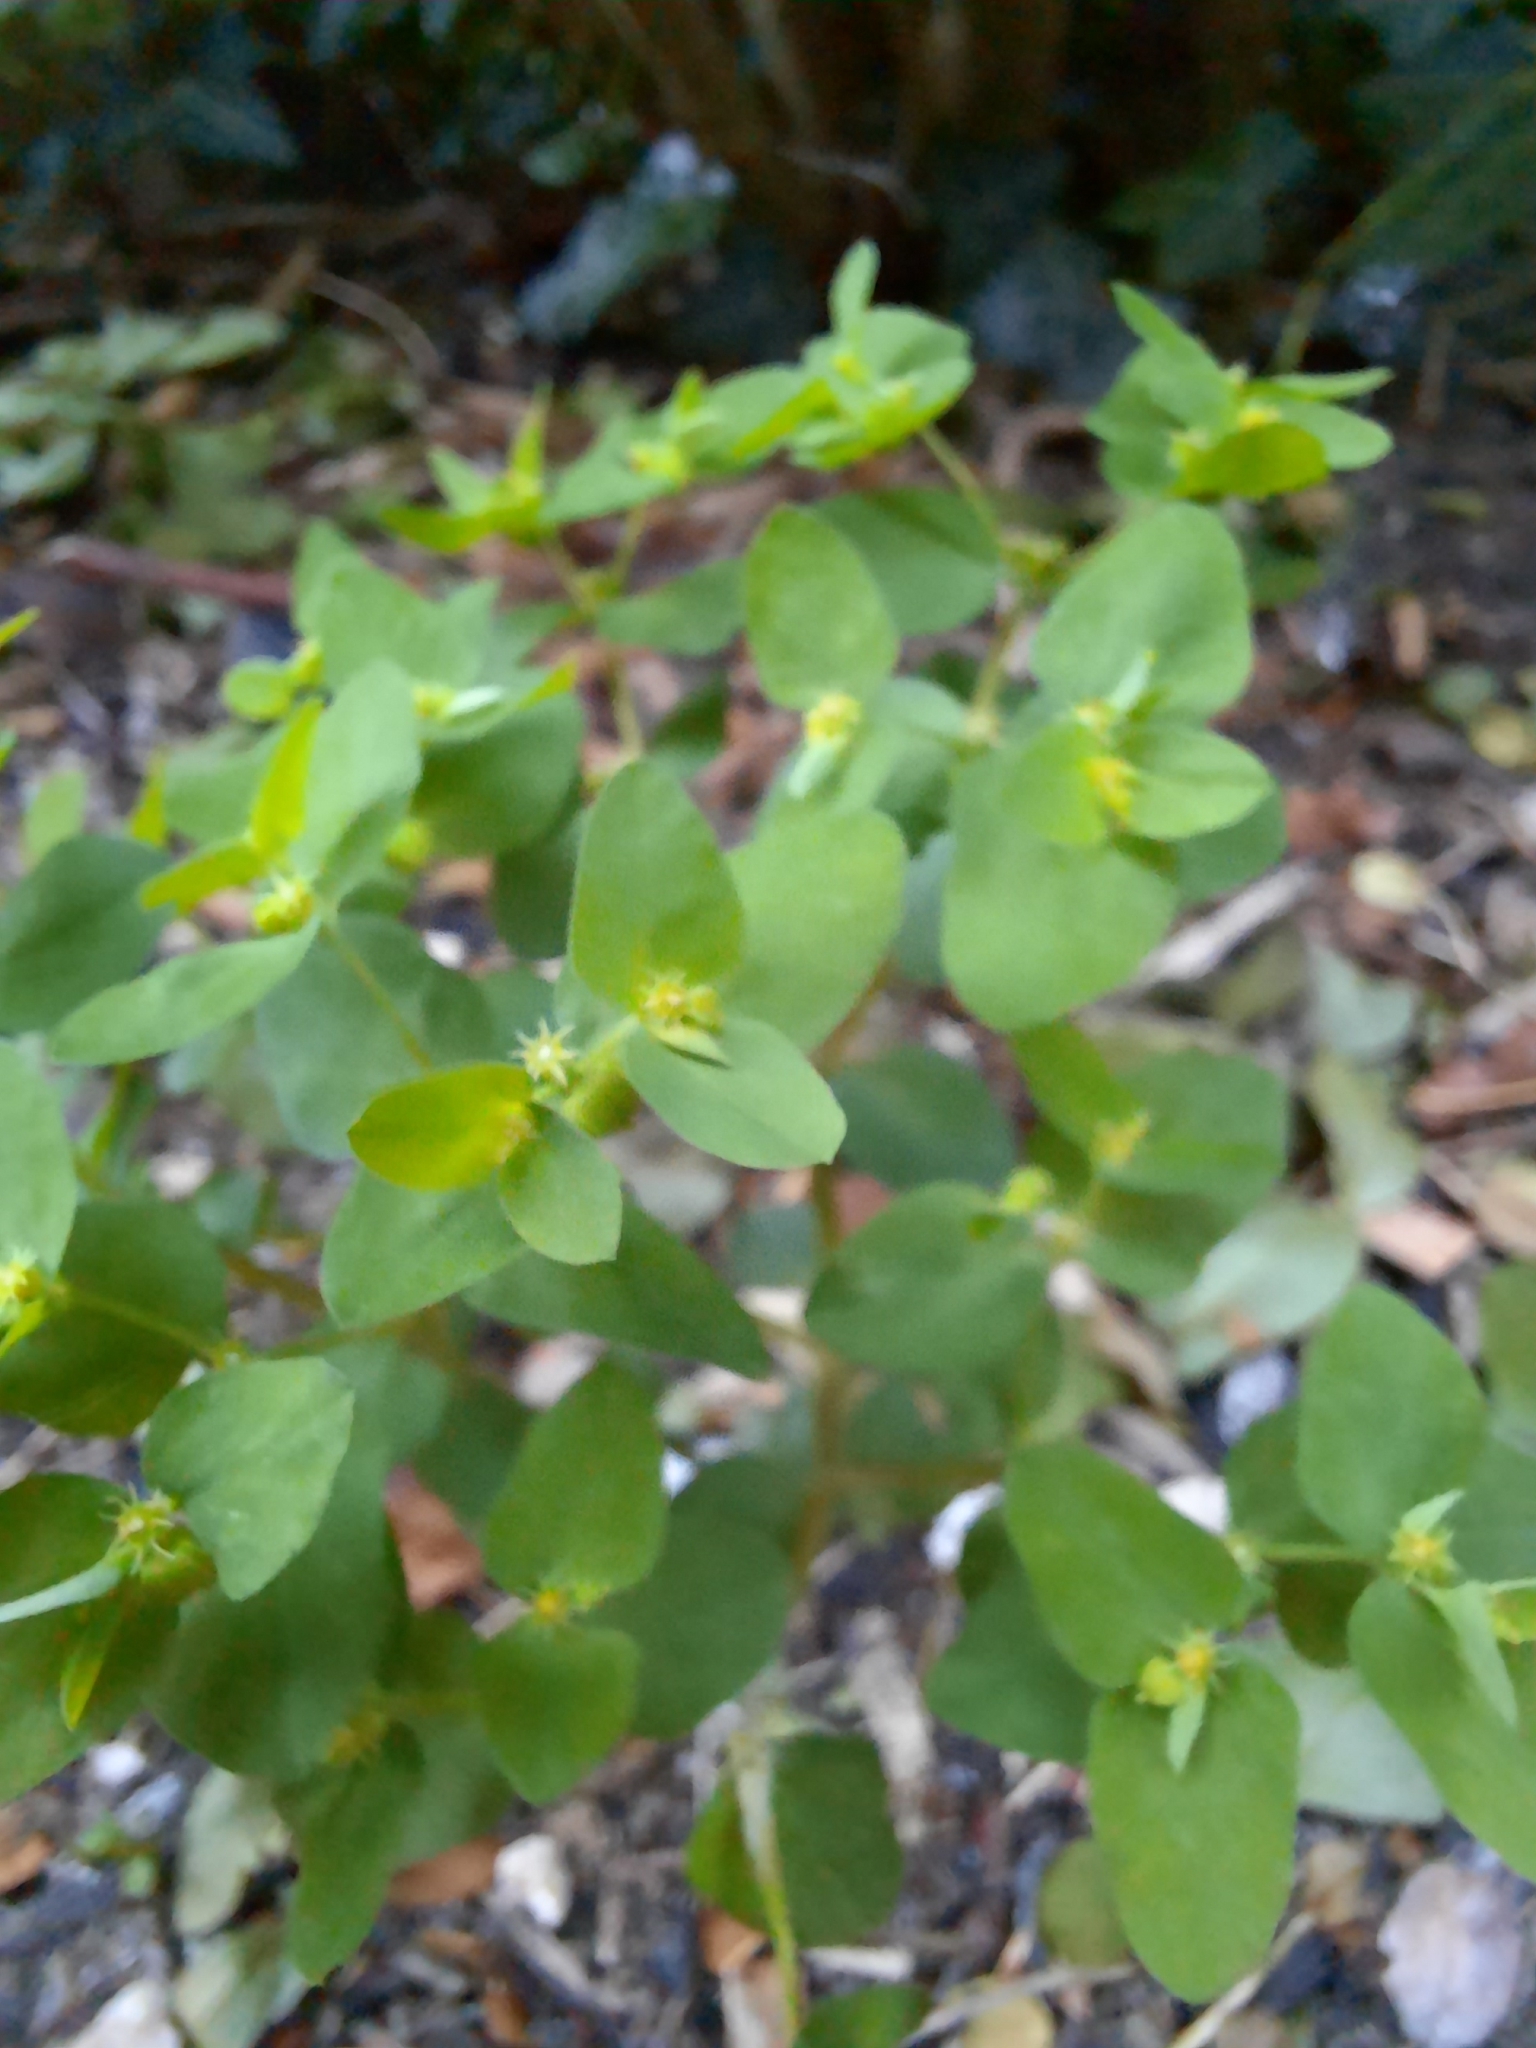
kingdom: Plantae
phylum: Tracheophyta
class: Magnoliopsida
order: Malpighiales
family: Euphorbiaceae
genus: Euphorbia
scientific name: Euphorbia peplus
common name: Petty spurge
